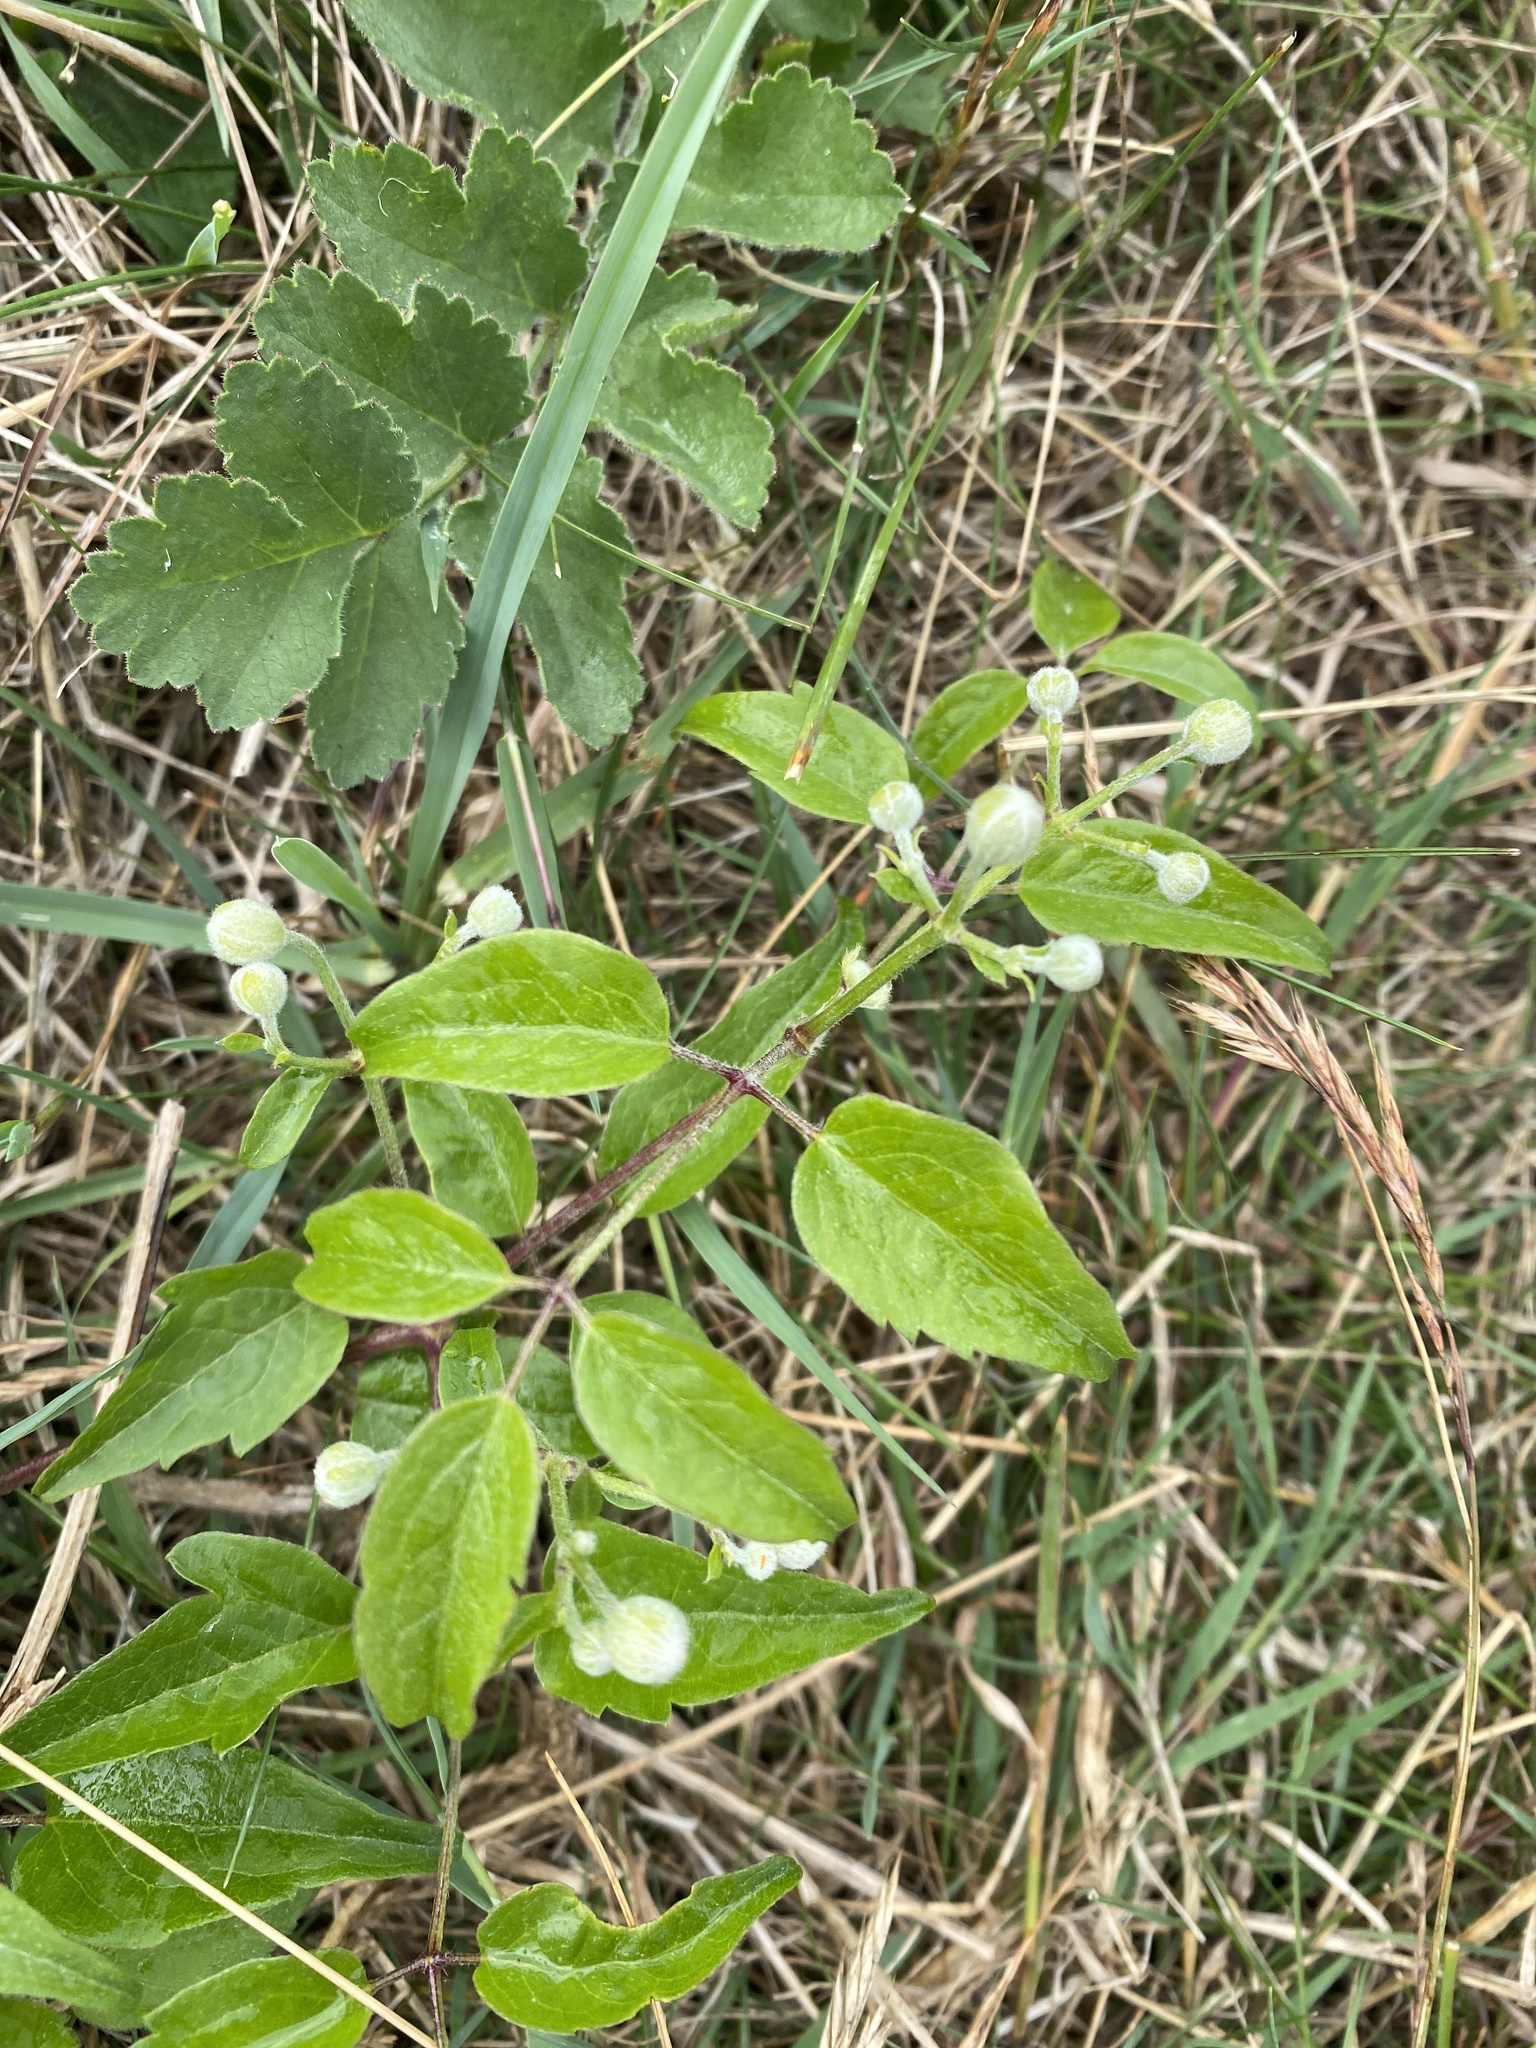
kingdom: Plantae
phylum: Tracheophyta
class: Magnoliopsida
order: Ranunculales
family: Ranunculaceae
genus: Clematis
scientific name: Clematis vitalba
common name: Evergreen clematis
